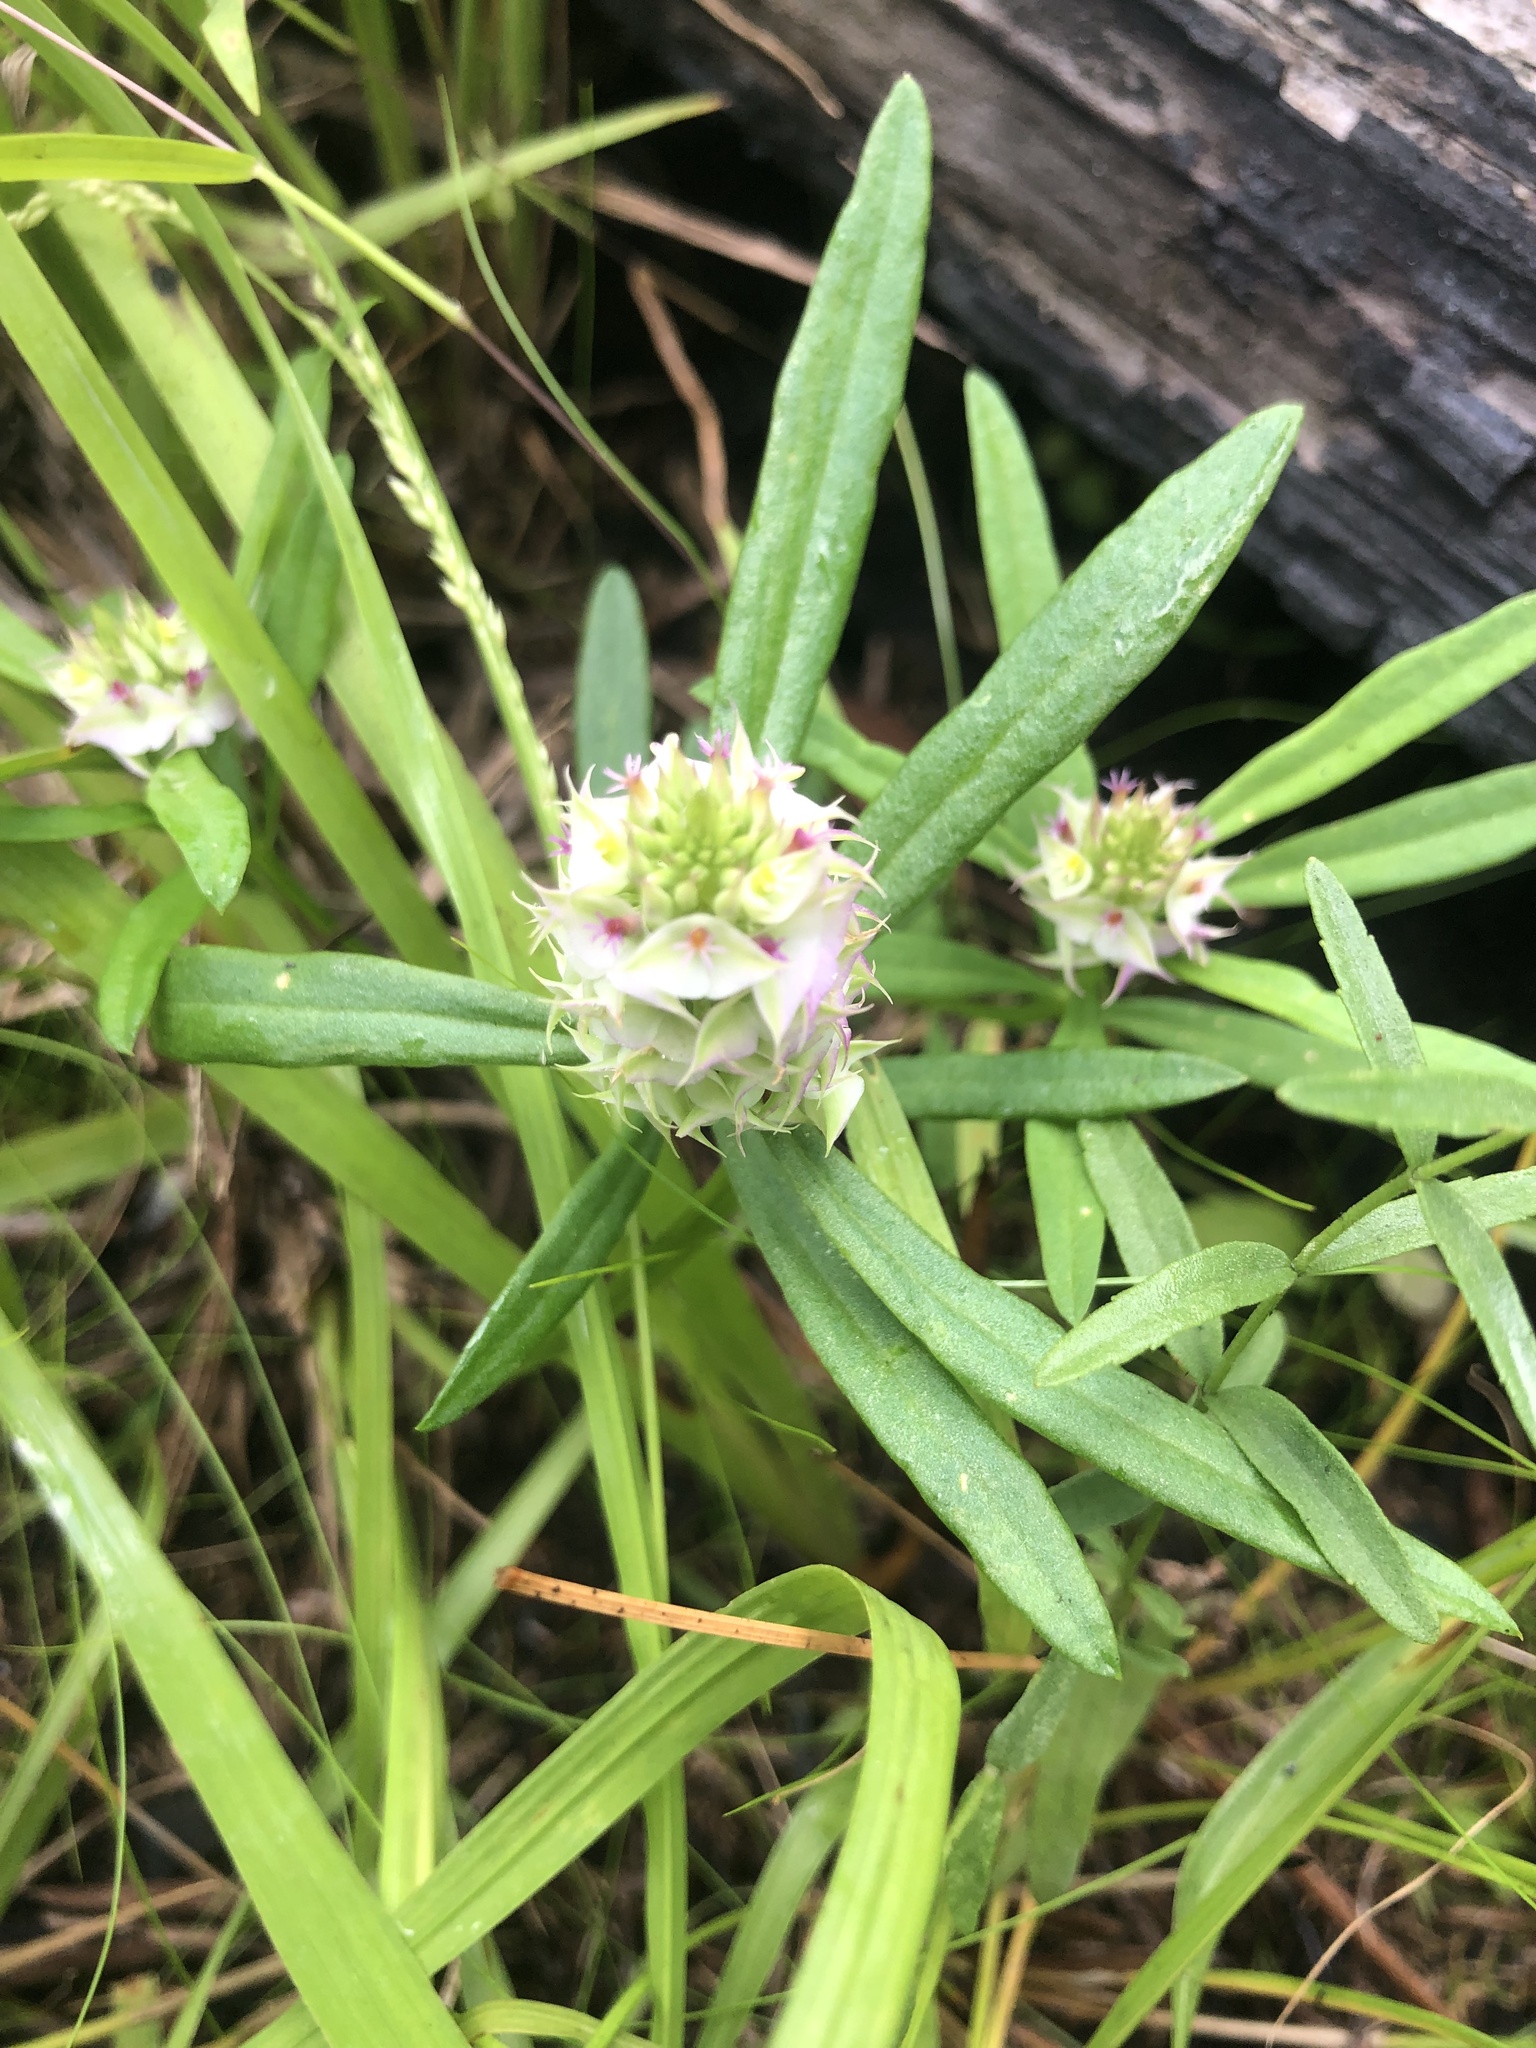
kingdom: Plantae
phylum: Tracheophyta
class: Magnoliopsida
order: Fabales
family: Polygalaceae
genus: Polygala
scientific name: Polygala cruciata
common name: Drumheads
